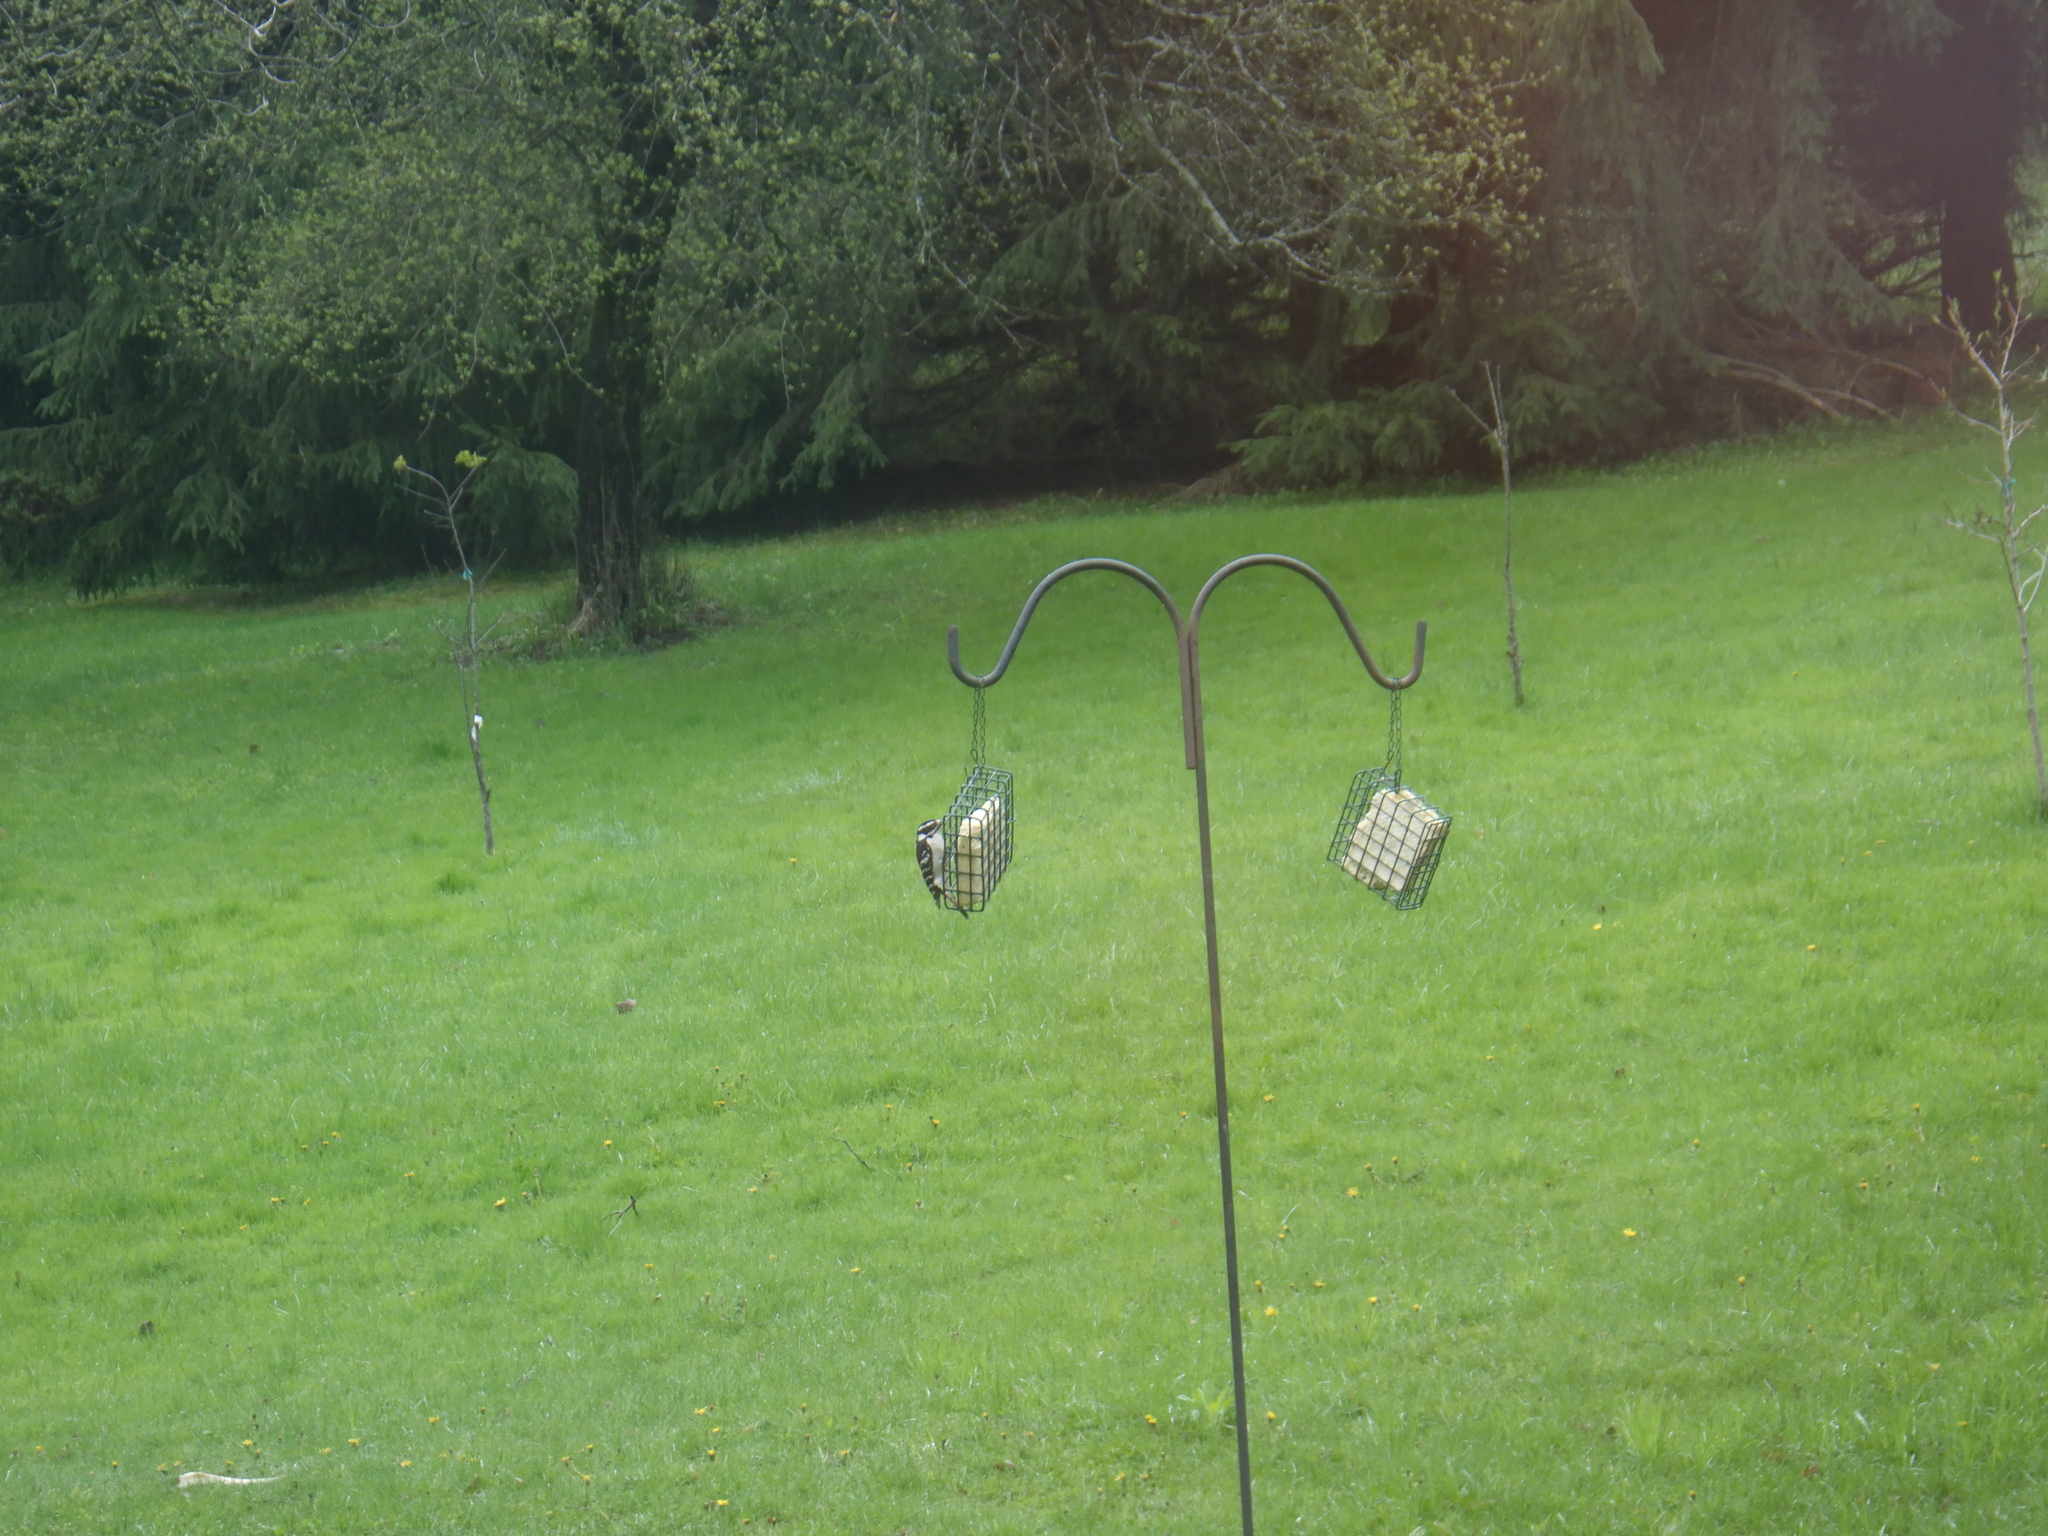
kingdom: Animalia
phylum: Chordata
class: Aves
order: Piciformes
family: Picidae
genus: Dryobates
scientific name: Dryobates pubescens
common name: Downy woodpecker
